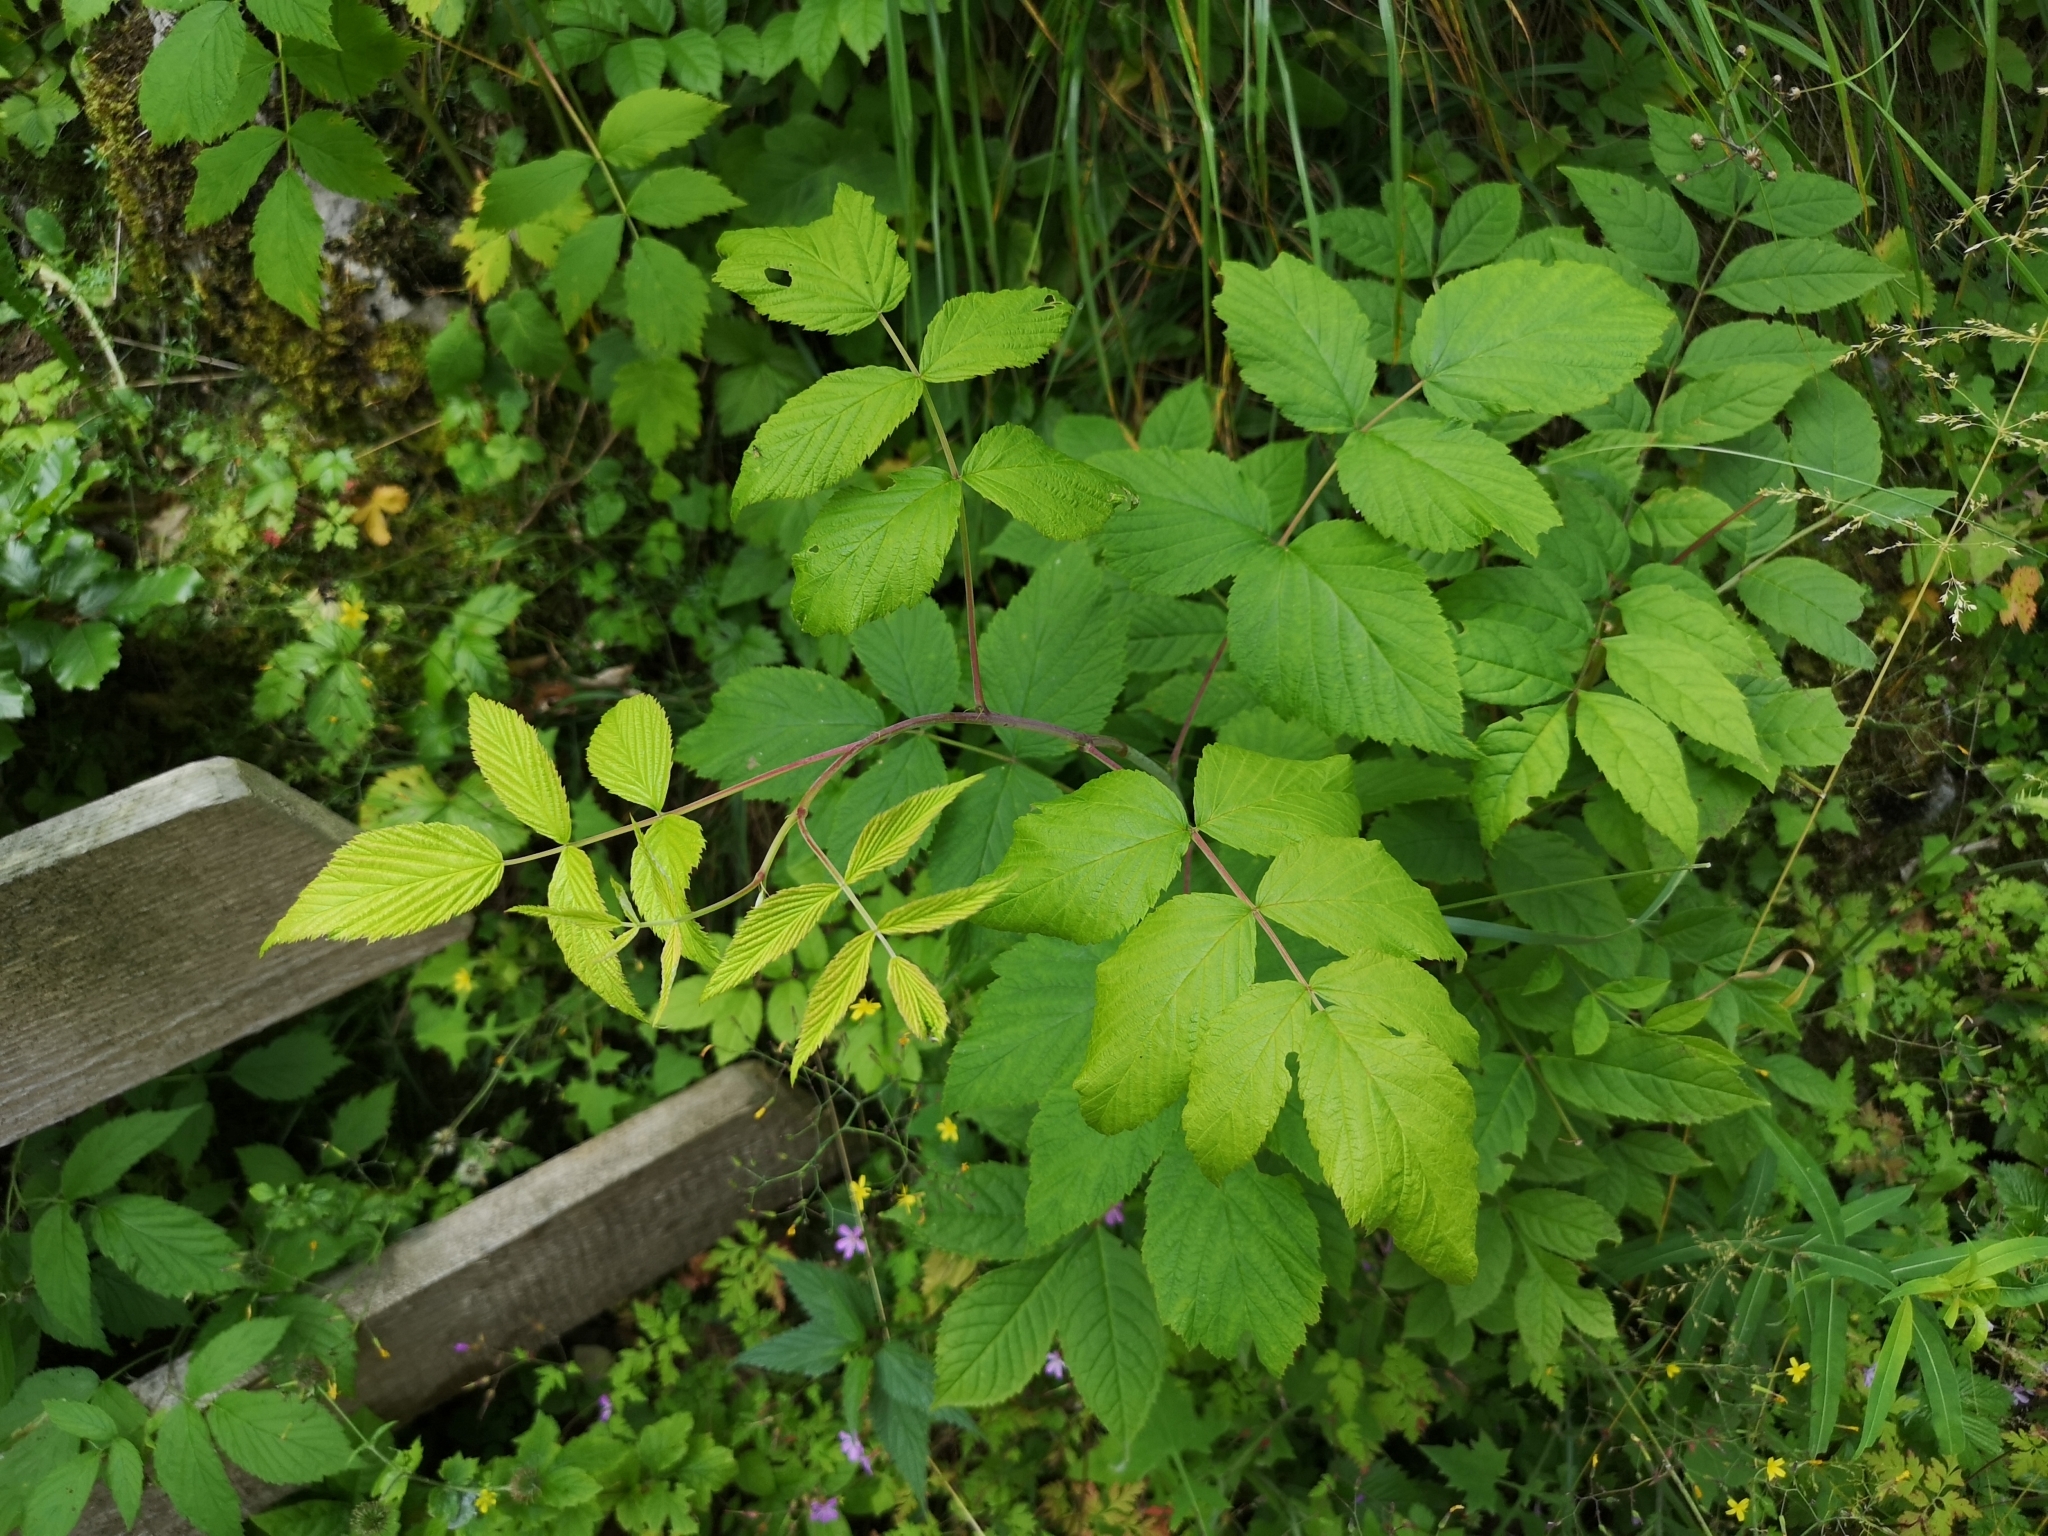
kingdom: Plantae
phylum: Tracheophyta
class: Magnoliopsida
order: Rosales
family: Rosaceae
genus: Rubus
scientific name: Rubus idaeus
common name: Raspberry
